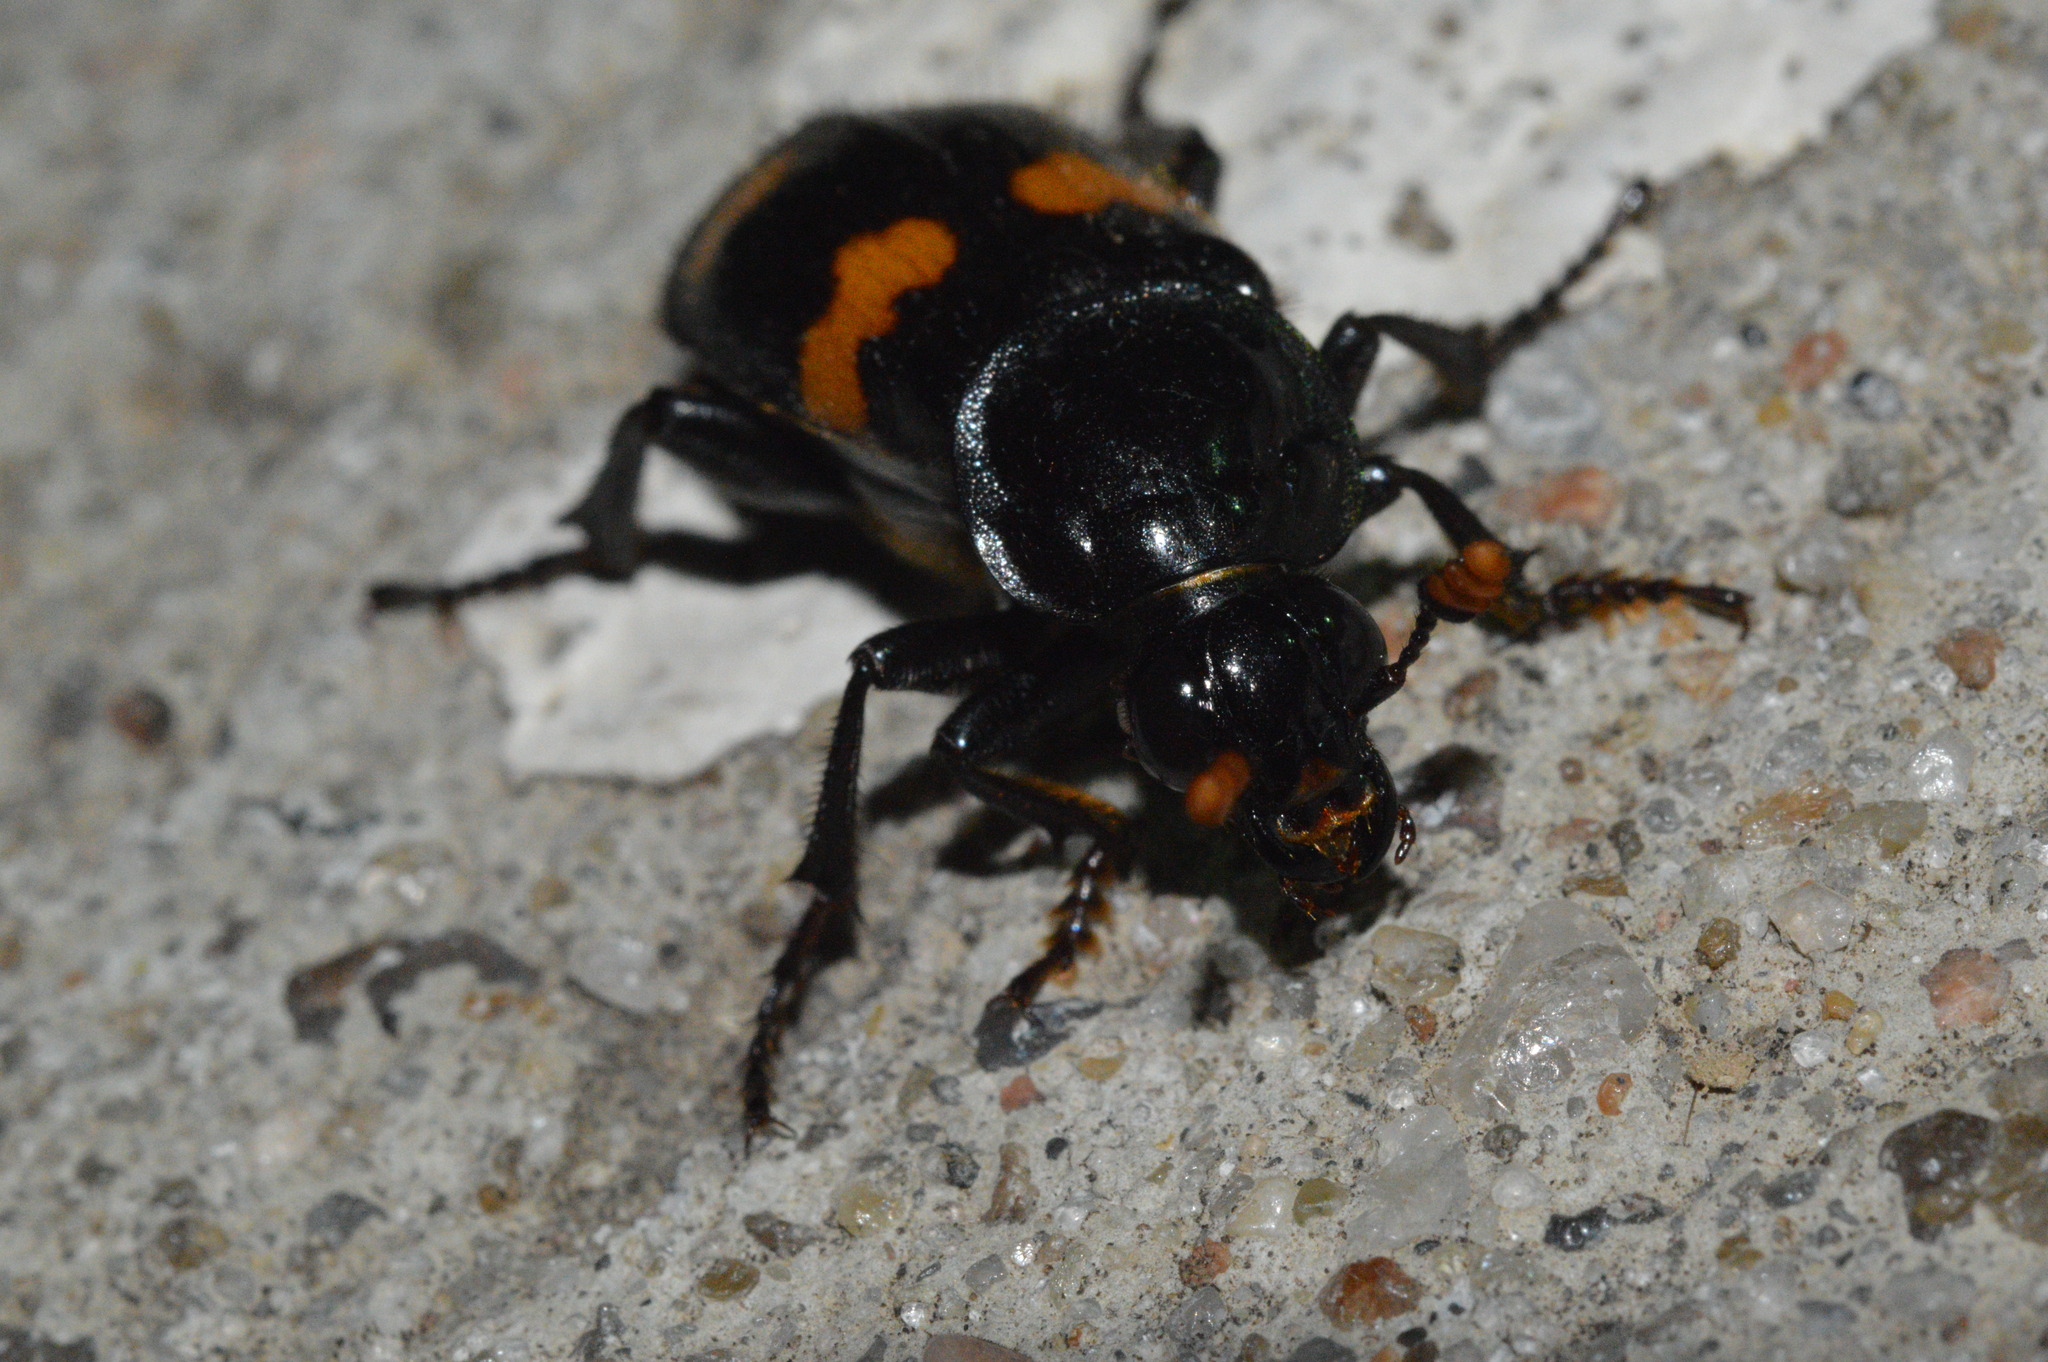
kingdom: Animalia
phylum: Arthropoda
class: Insecta
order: Coleoptera
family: Staphylinidae
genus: Nicrophorus
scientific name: Nicrophorus orbicollis
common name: Roundneck sexton beetle
